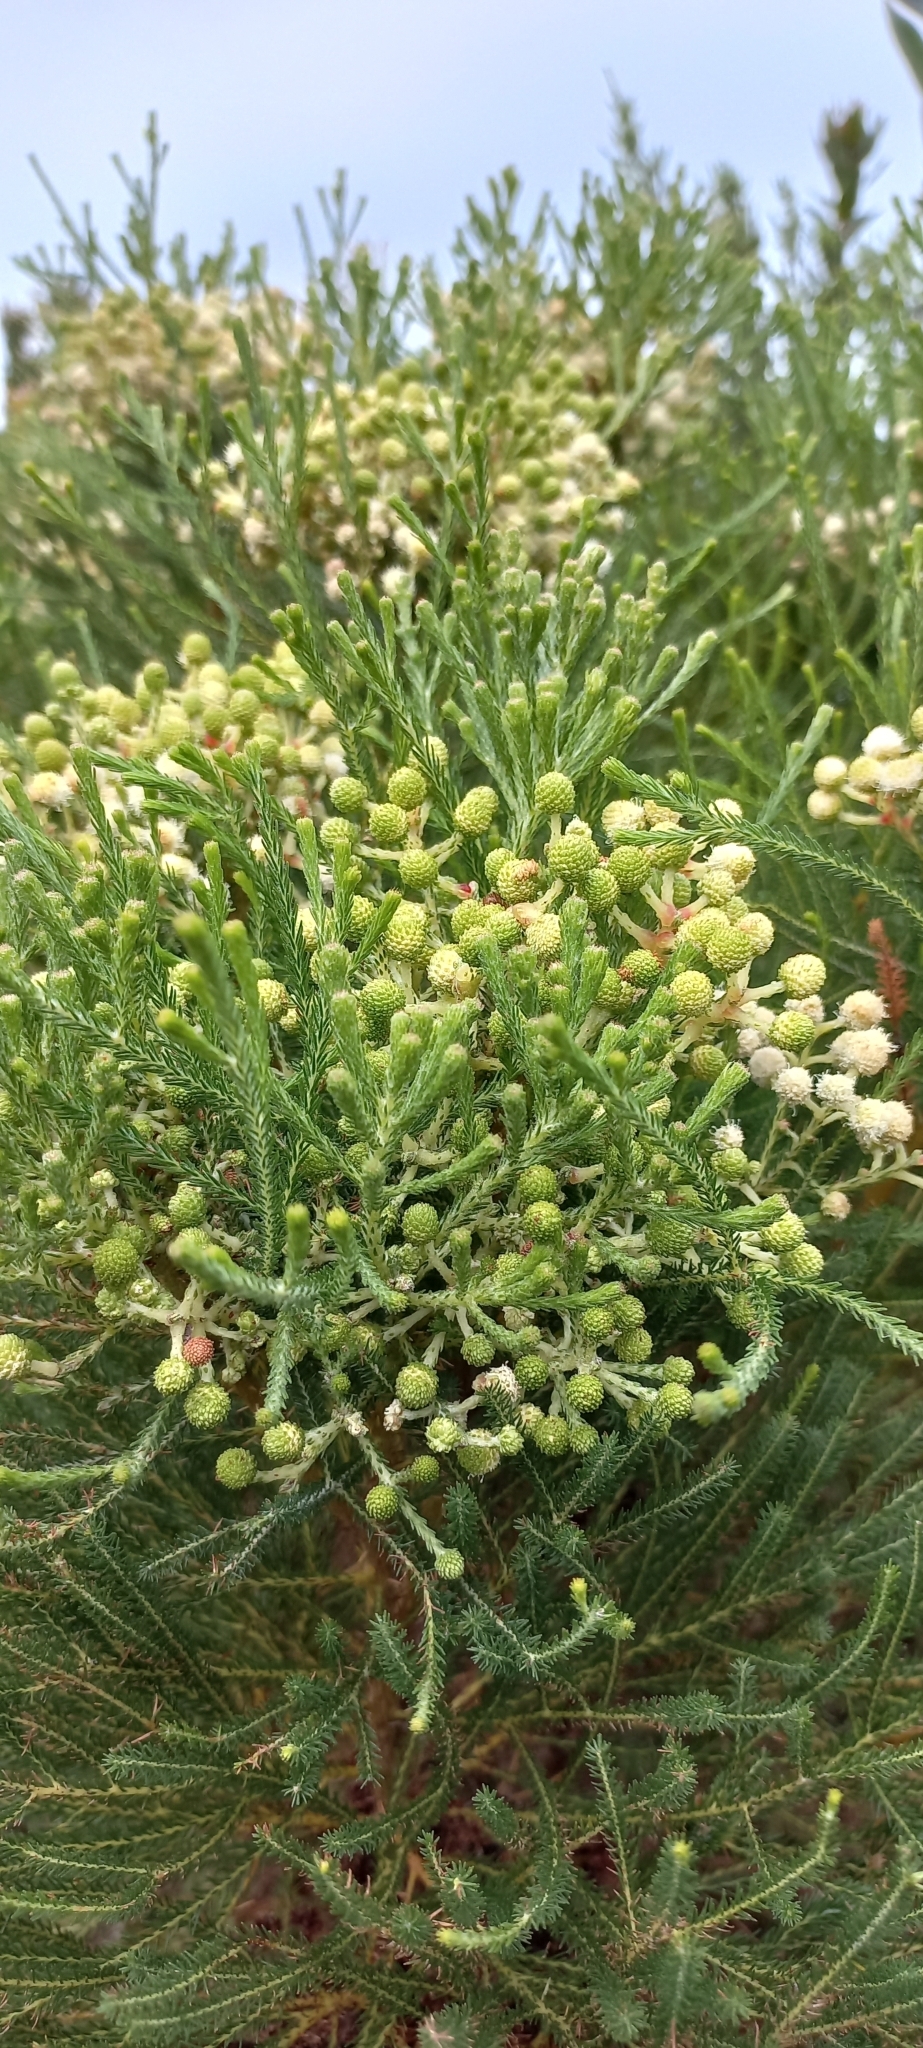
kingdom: Plantae
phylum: Tracheophyta
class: Magnoliopsida
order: Bruniales
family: Bruniaceae
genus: Berzelia
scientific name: Berzelia lanuginosa
